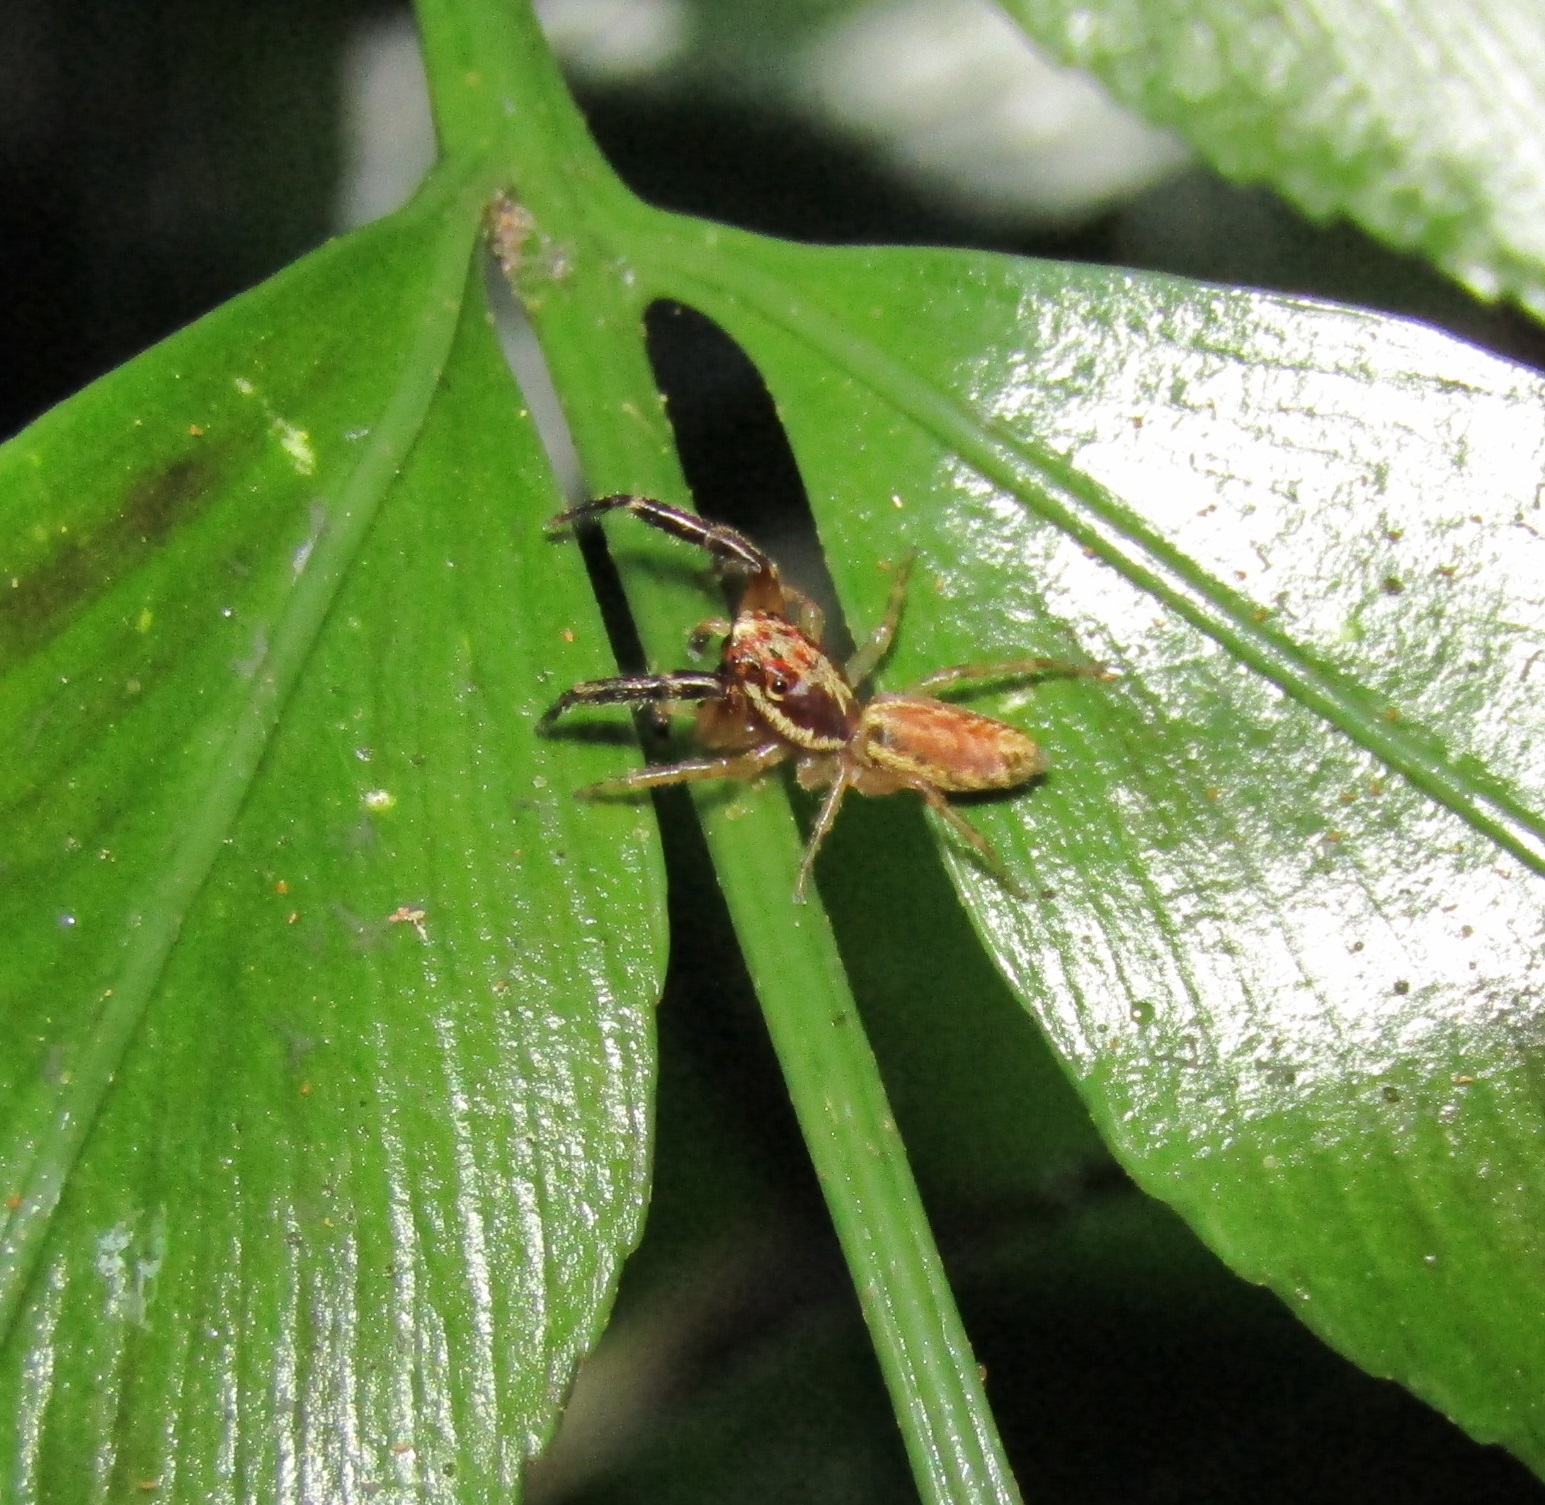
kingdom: Animalia
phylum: Arthropoda
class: Arachnida
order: Araneae
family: Salticidae
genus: Trite
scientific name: Trite mustilina
